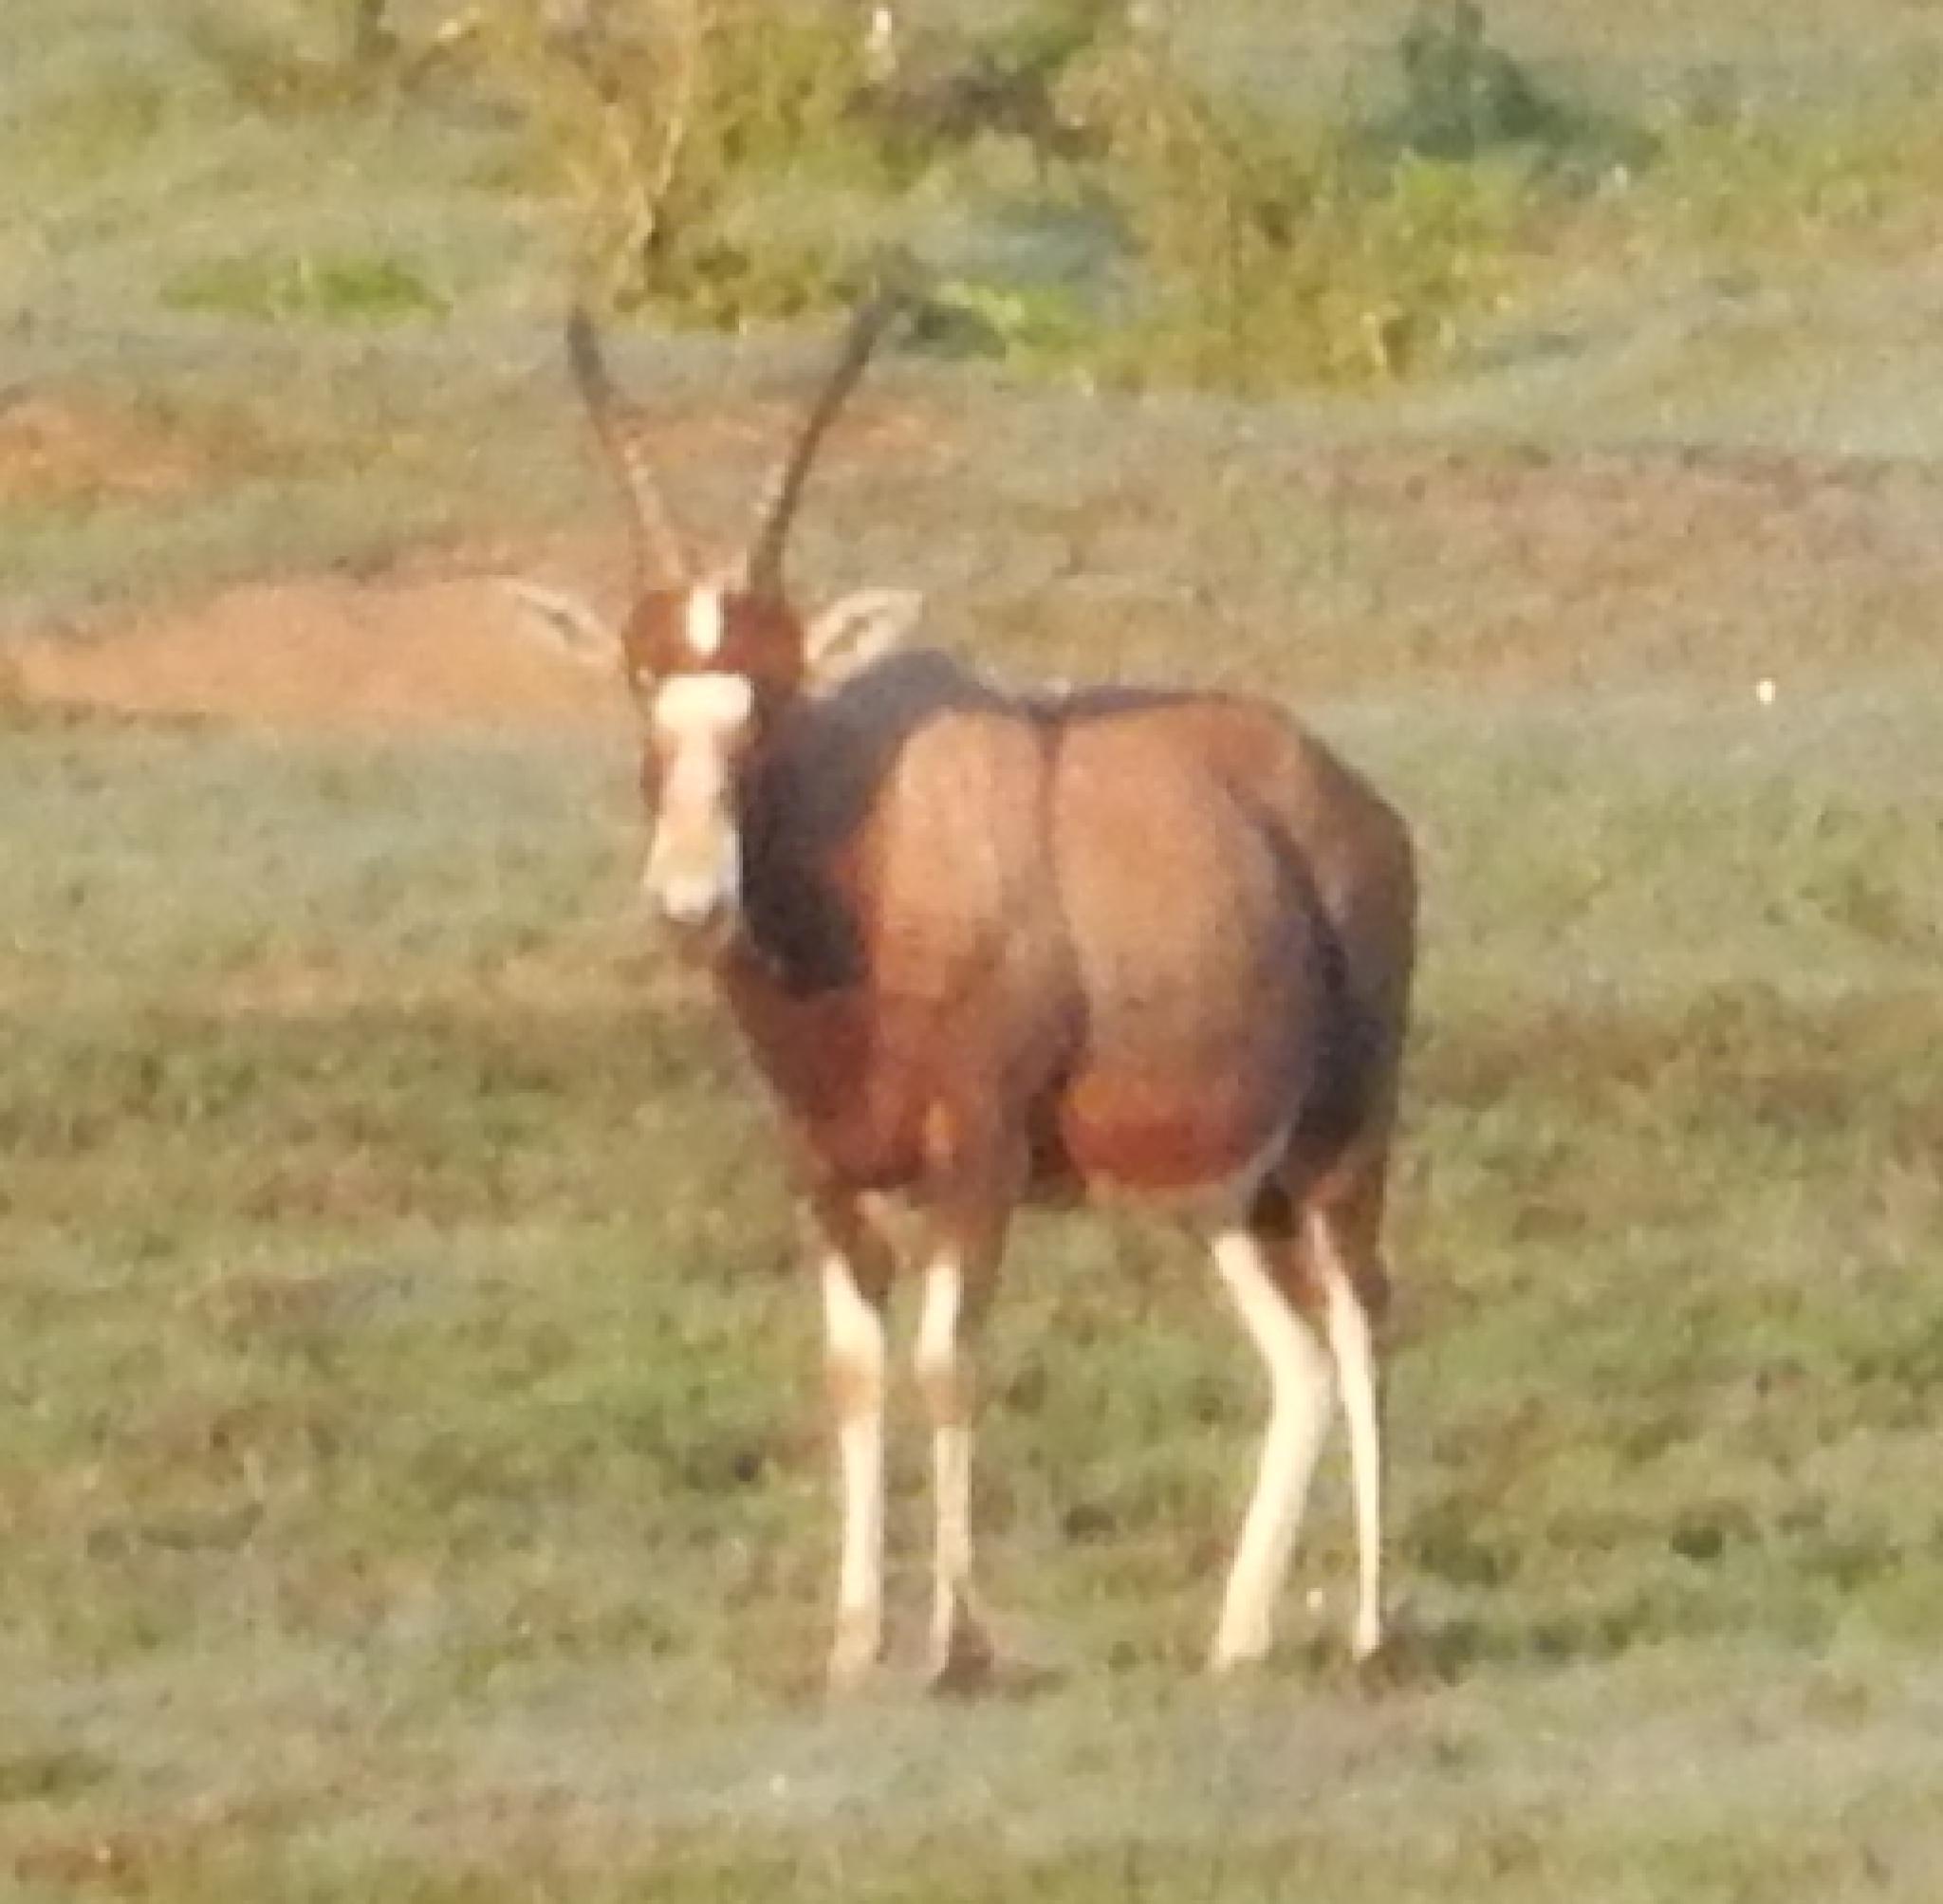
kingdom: Animalia
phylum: Chordata
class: Mammalia
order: Artiodactyla
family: Bovidae
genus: Damaliscus
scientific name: Damaliscus pygargus
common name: Bontebok
